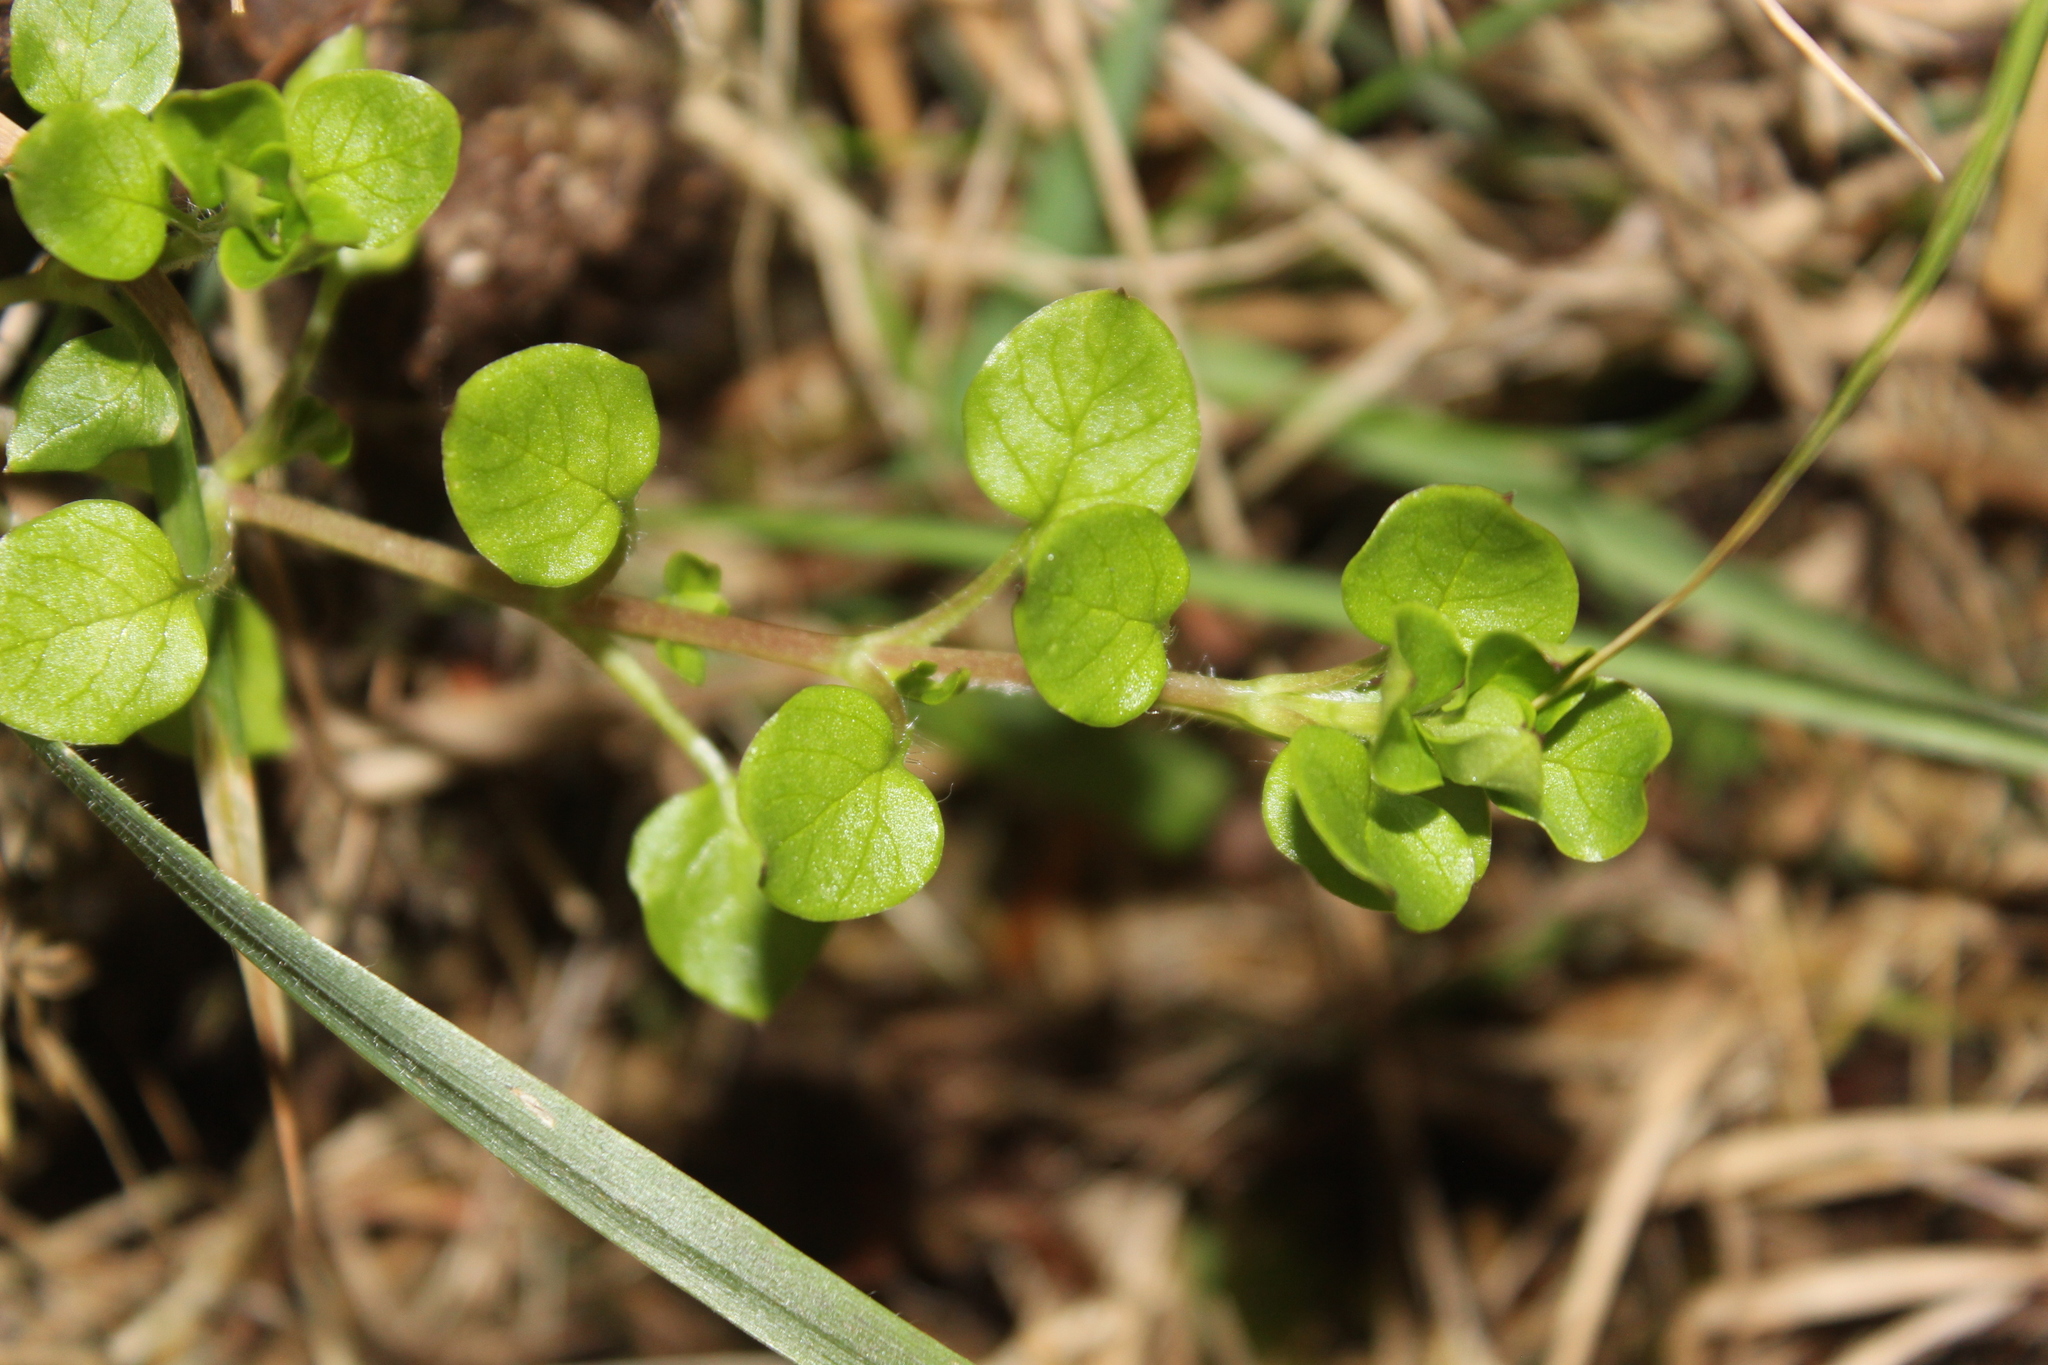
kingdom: Plantae
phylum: Tracheophyta
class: Magnoliopsida
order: Caryophyllales
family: Caryophyllaceae
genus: Stellaria
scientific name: Stellaria media
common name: Common chickweed
